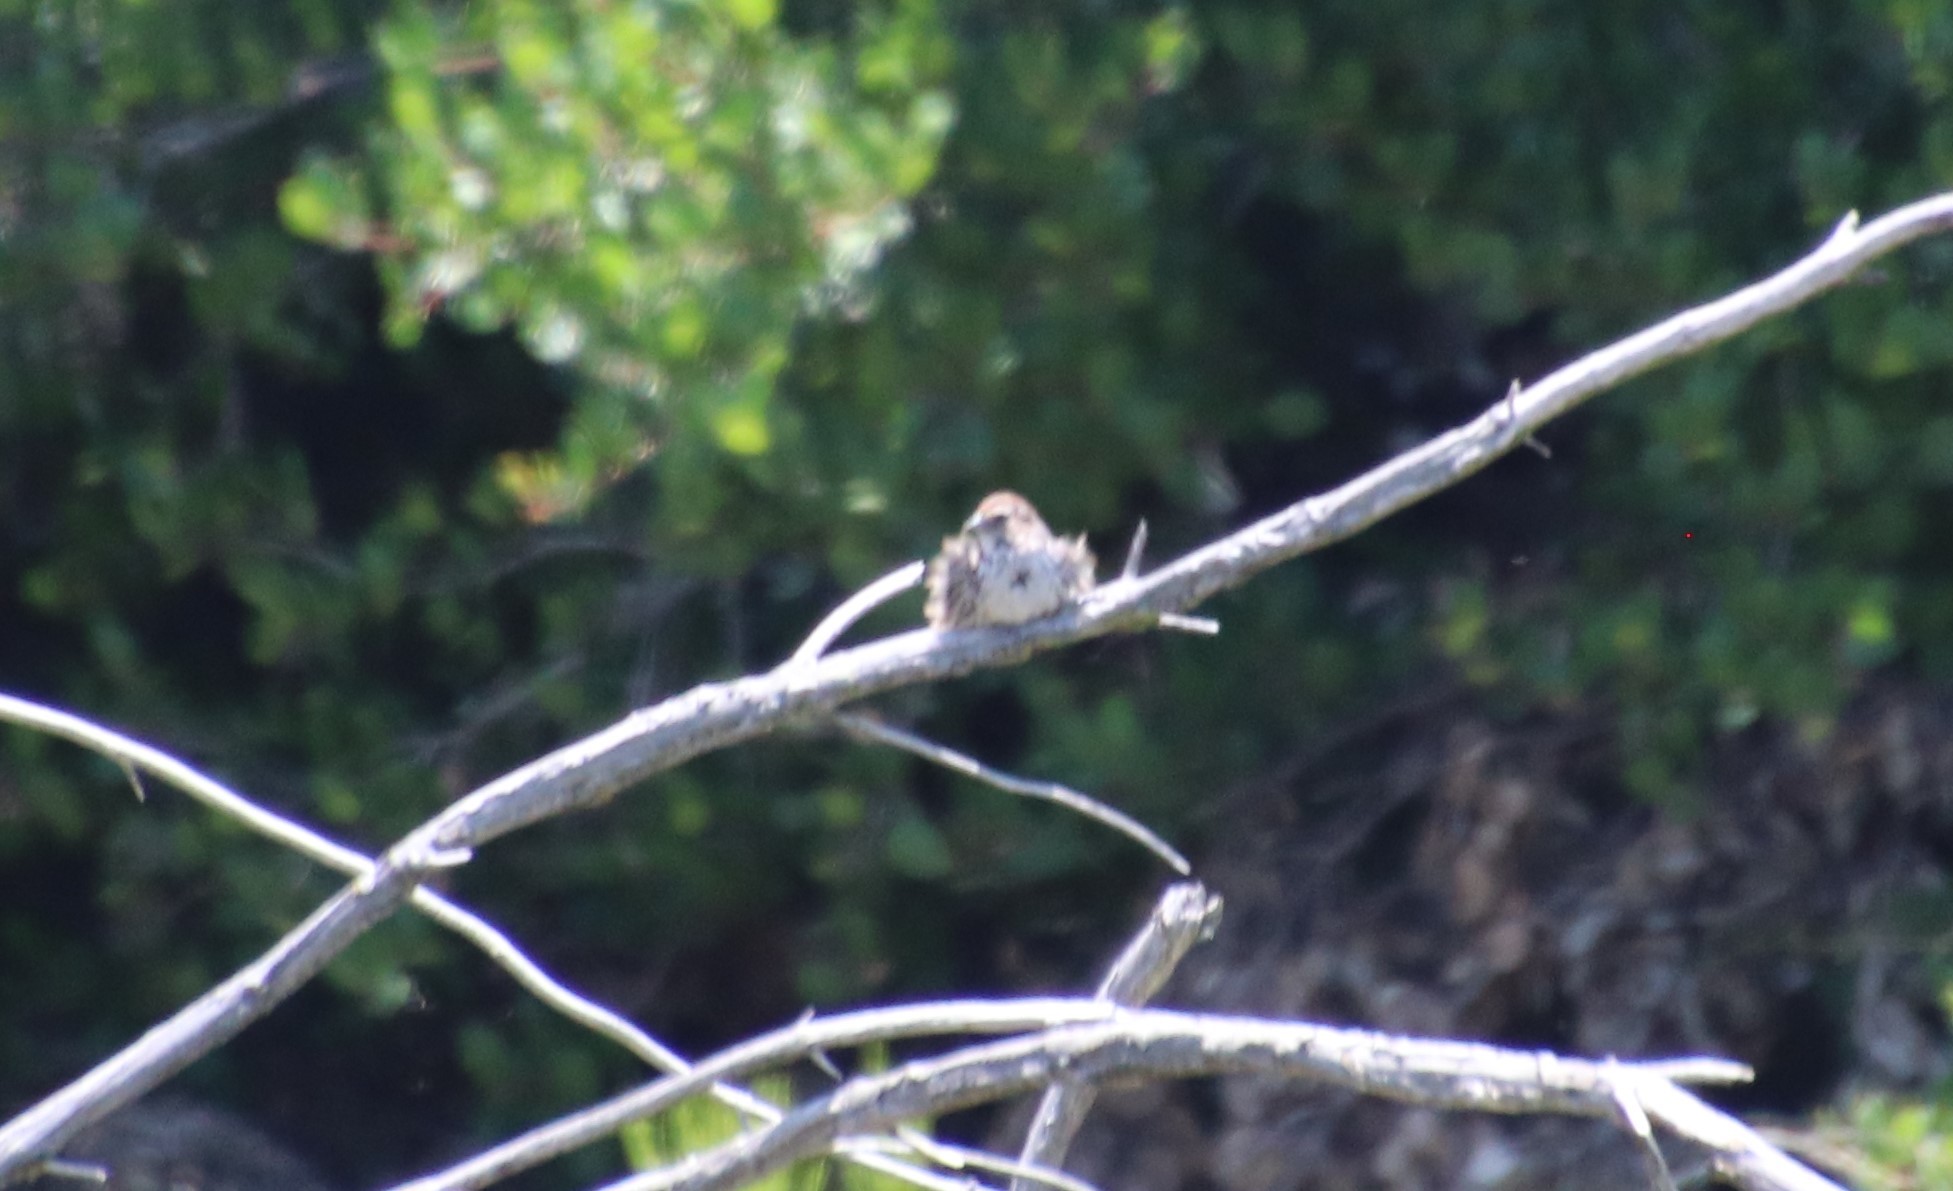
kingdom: Animalia
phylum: Chordata
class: Aves
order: Passeriformes
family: Passerellidae
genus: Melospiza
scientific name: Melospiza melodia
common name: Song sparrow
